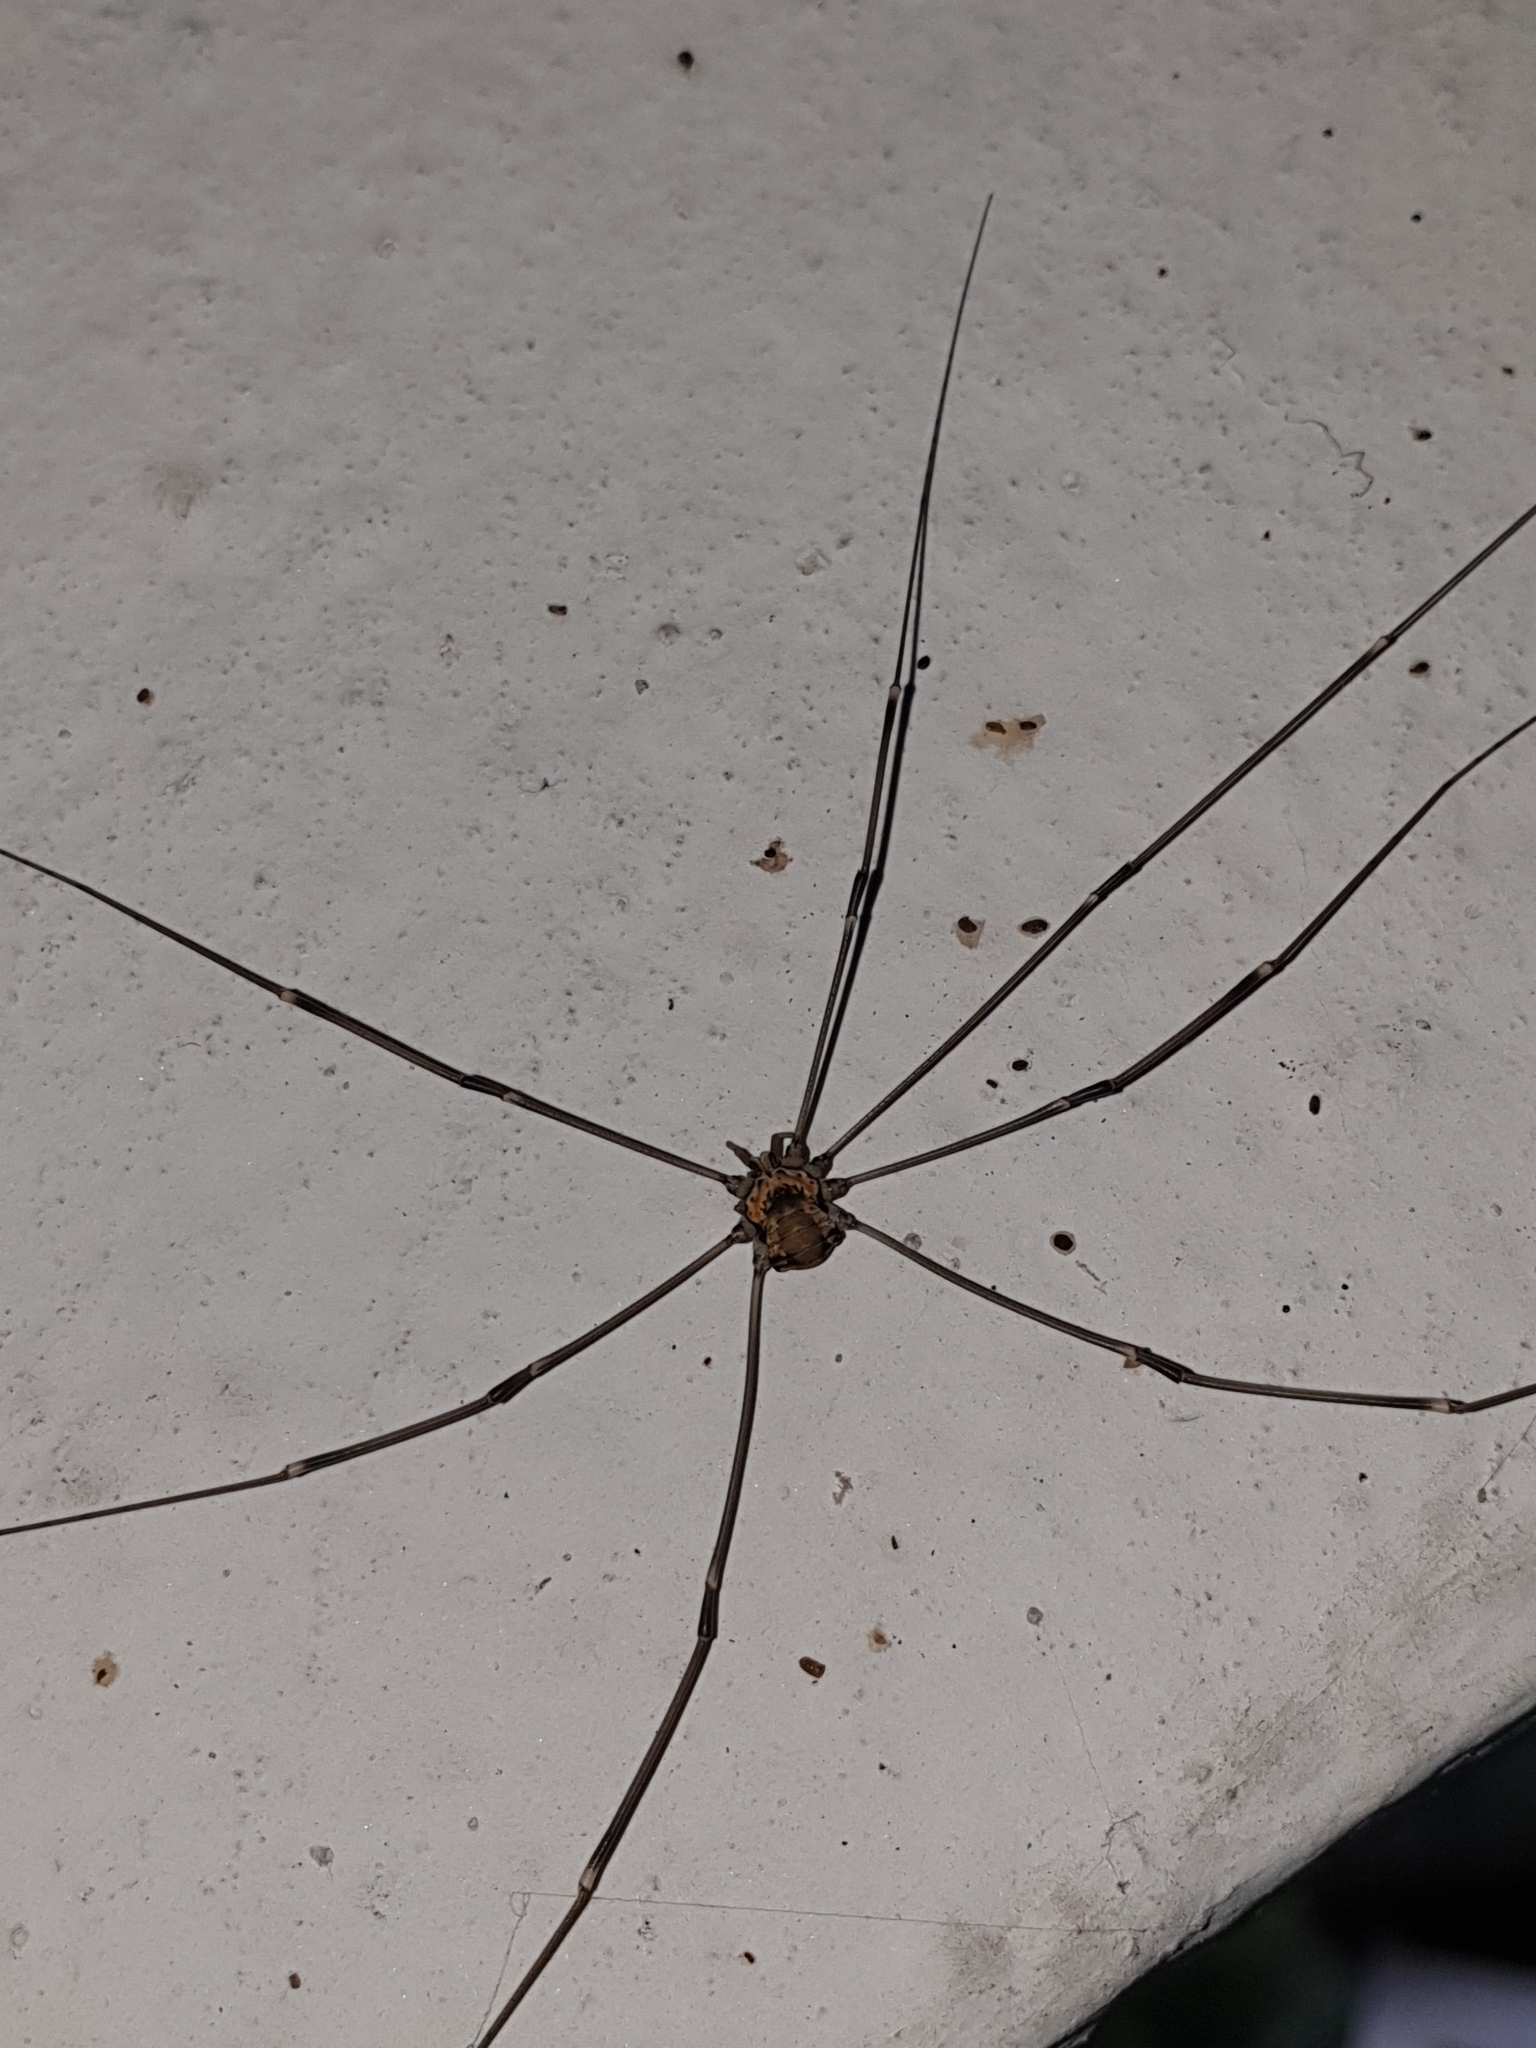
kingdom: Animalia
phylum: Arthropoda
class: Arachnida
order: Opiliones
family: Sclerosomatidae
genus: Leiobunum
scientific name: Leiobunum limbatum
